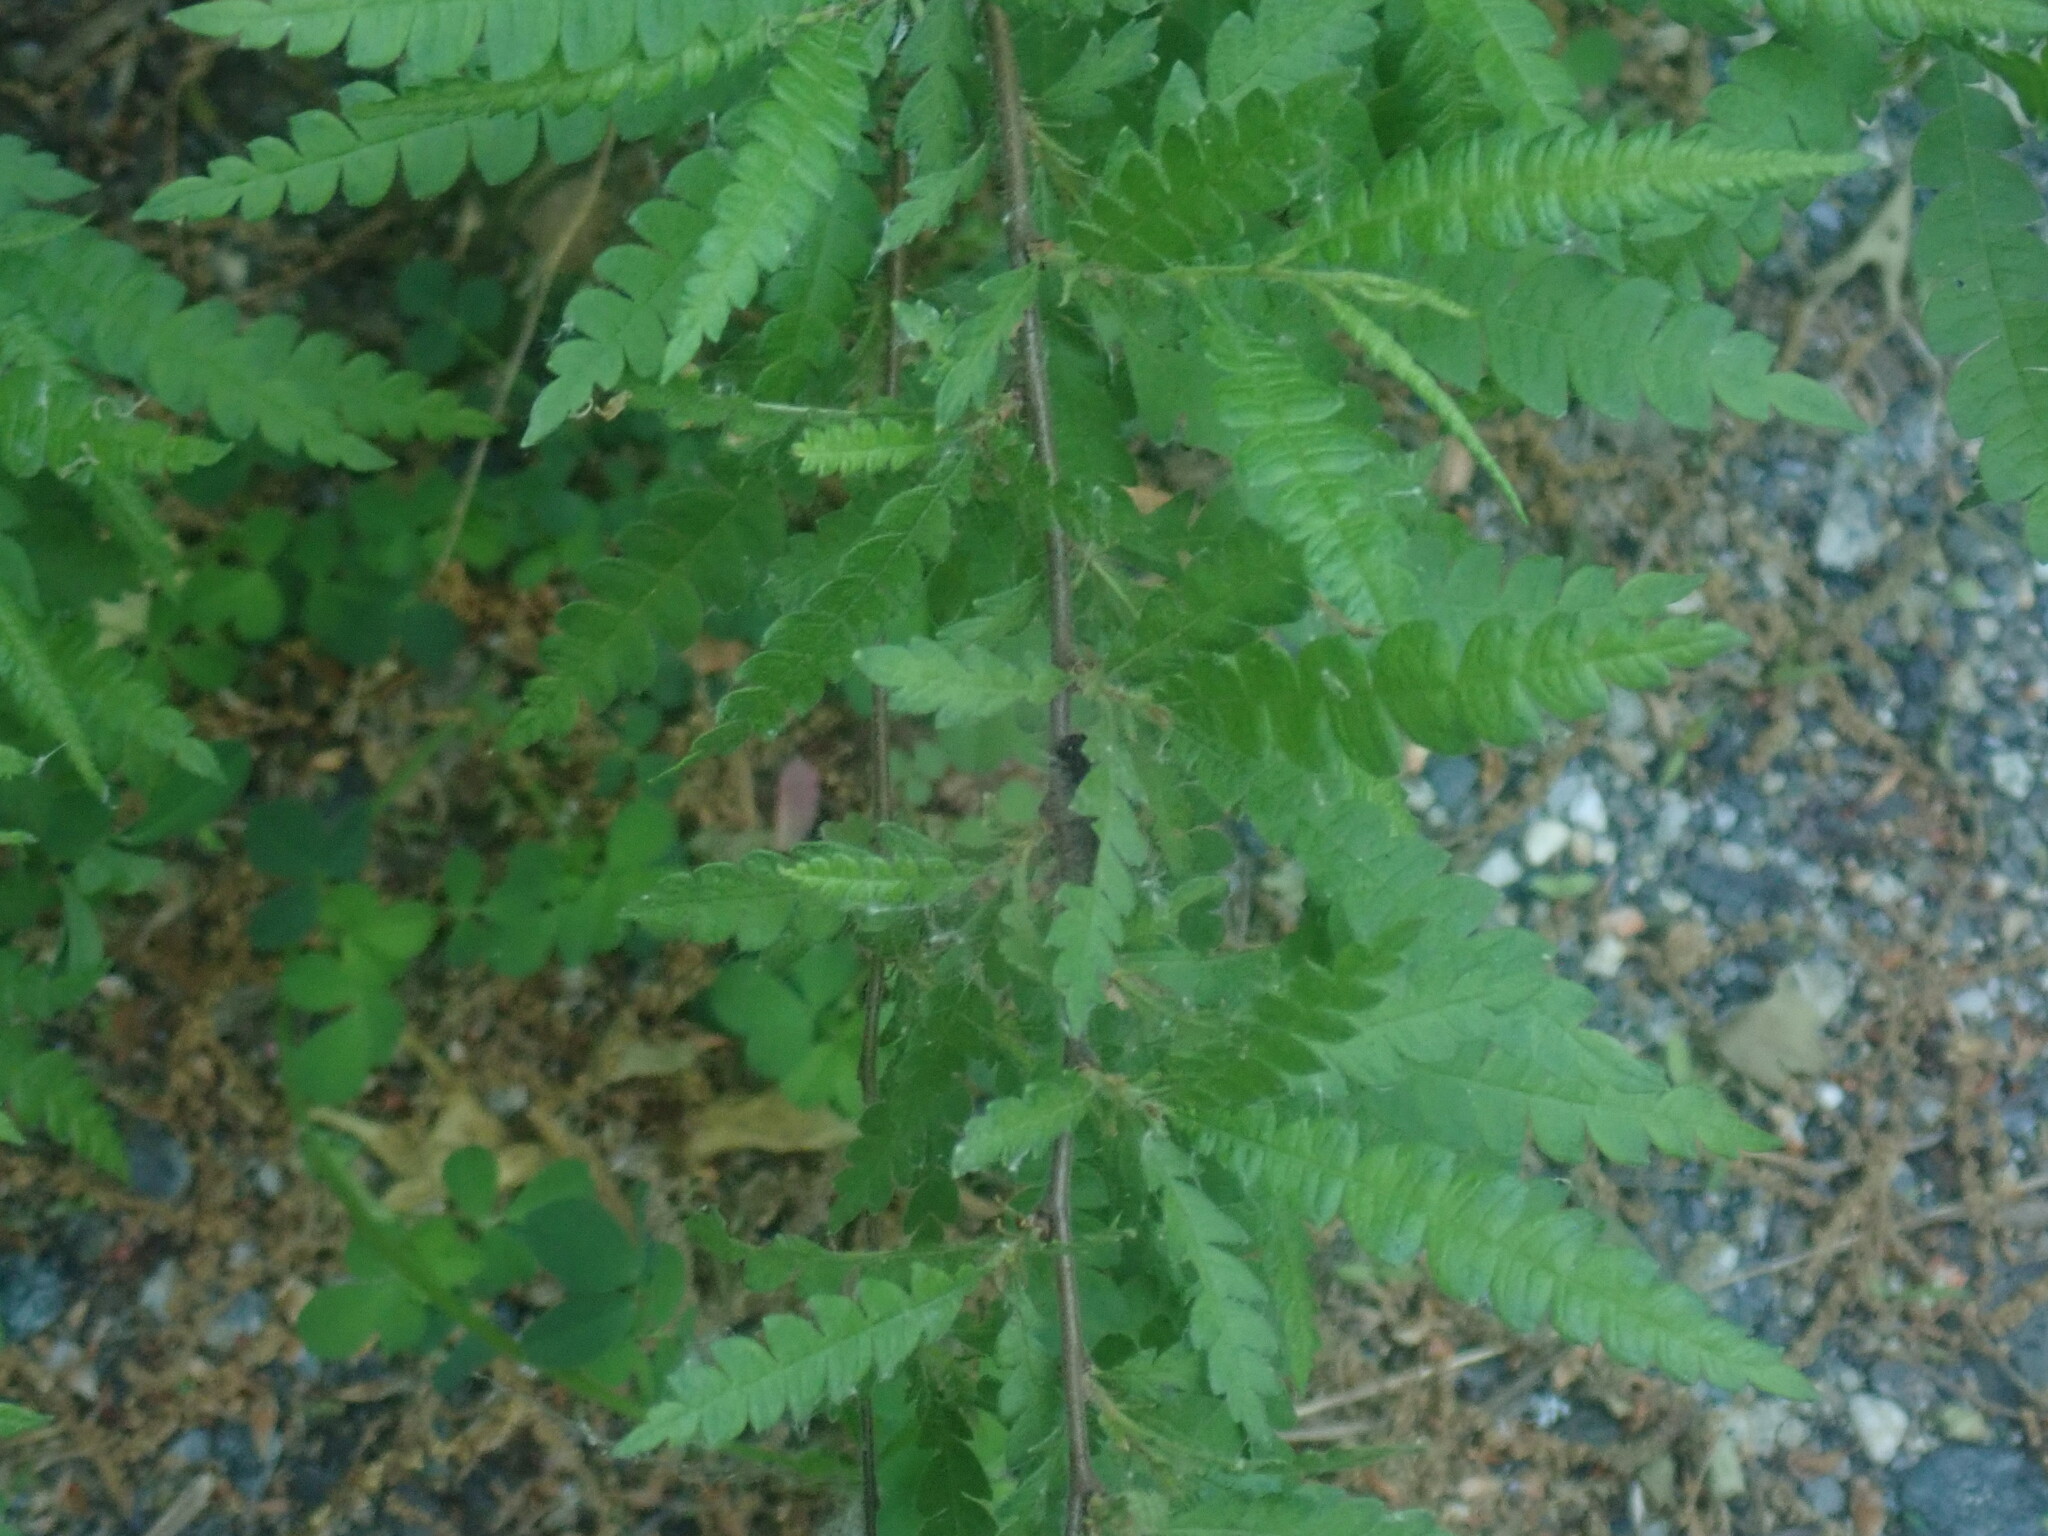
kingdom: Plantae
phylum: Tracheophyta
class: Magnoliopsida
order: Fagales
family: Myricaceae
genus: Comptonia
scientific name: Comptonia peregrina
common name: Sweet-fern
